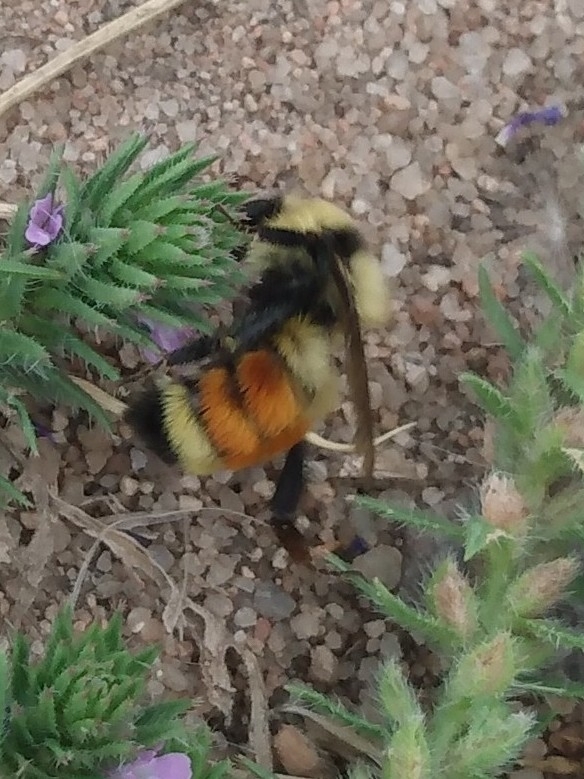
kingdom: Animalia
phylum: Arthropoda
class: Insecta
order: Hymenoptera
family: Apidae
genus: Bombus
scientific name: Bombus huntii
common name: Hunt bumble bee
